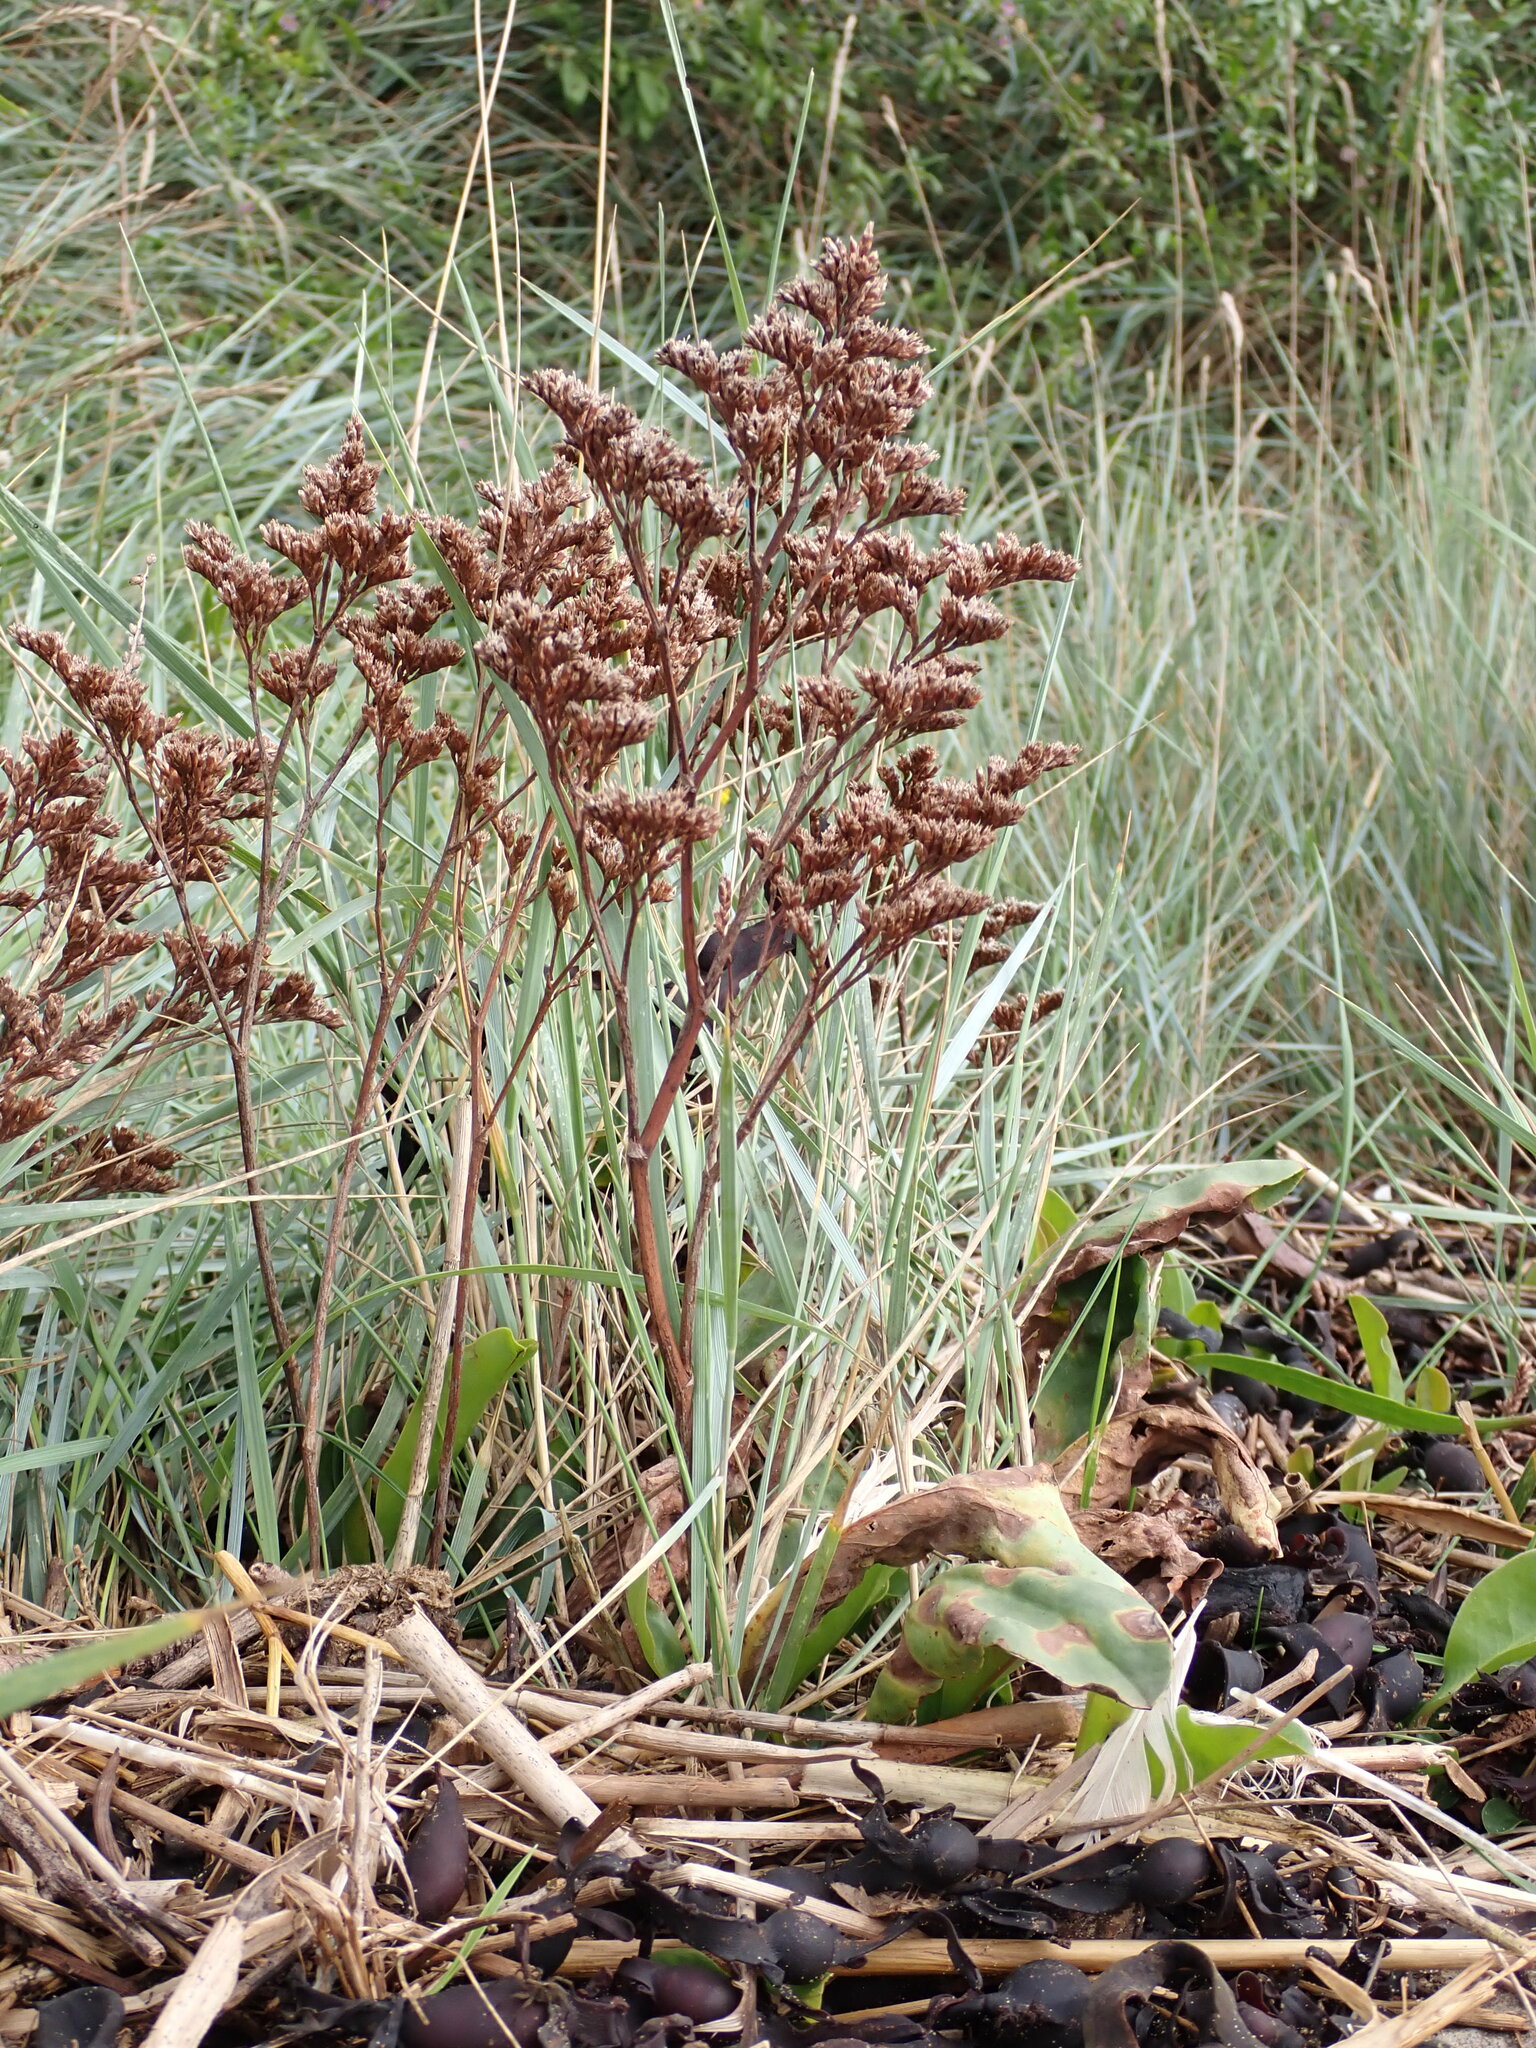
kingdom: Plantae
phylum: Tracheophyta
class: Magnoliopsida
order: Caryophyllales
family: Plumbaginaceae
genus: Limonium
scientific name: Limonium vulgare
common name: Common sea-lavender
